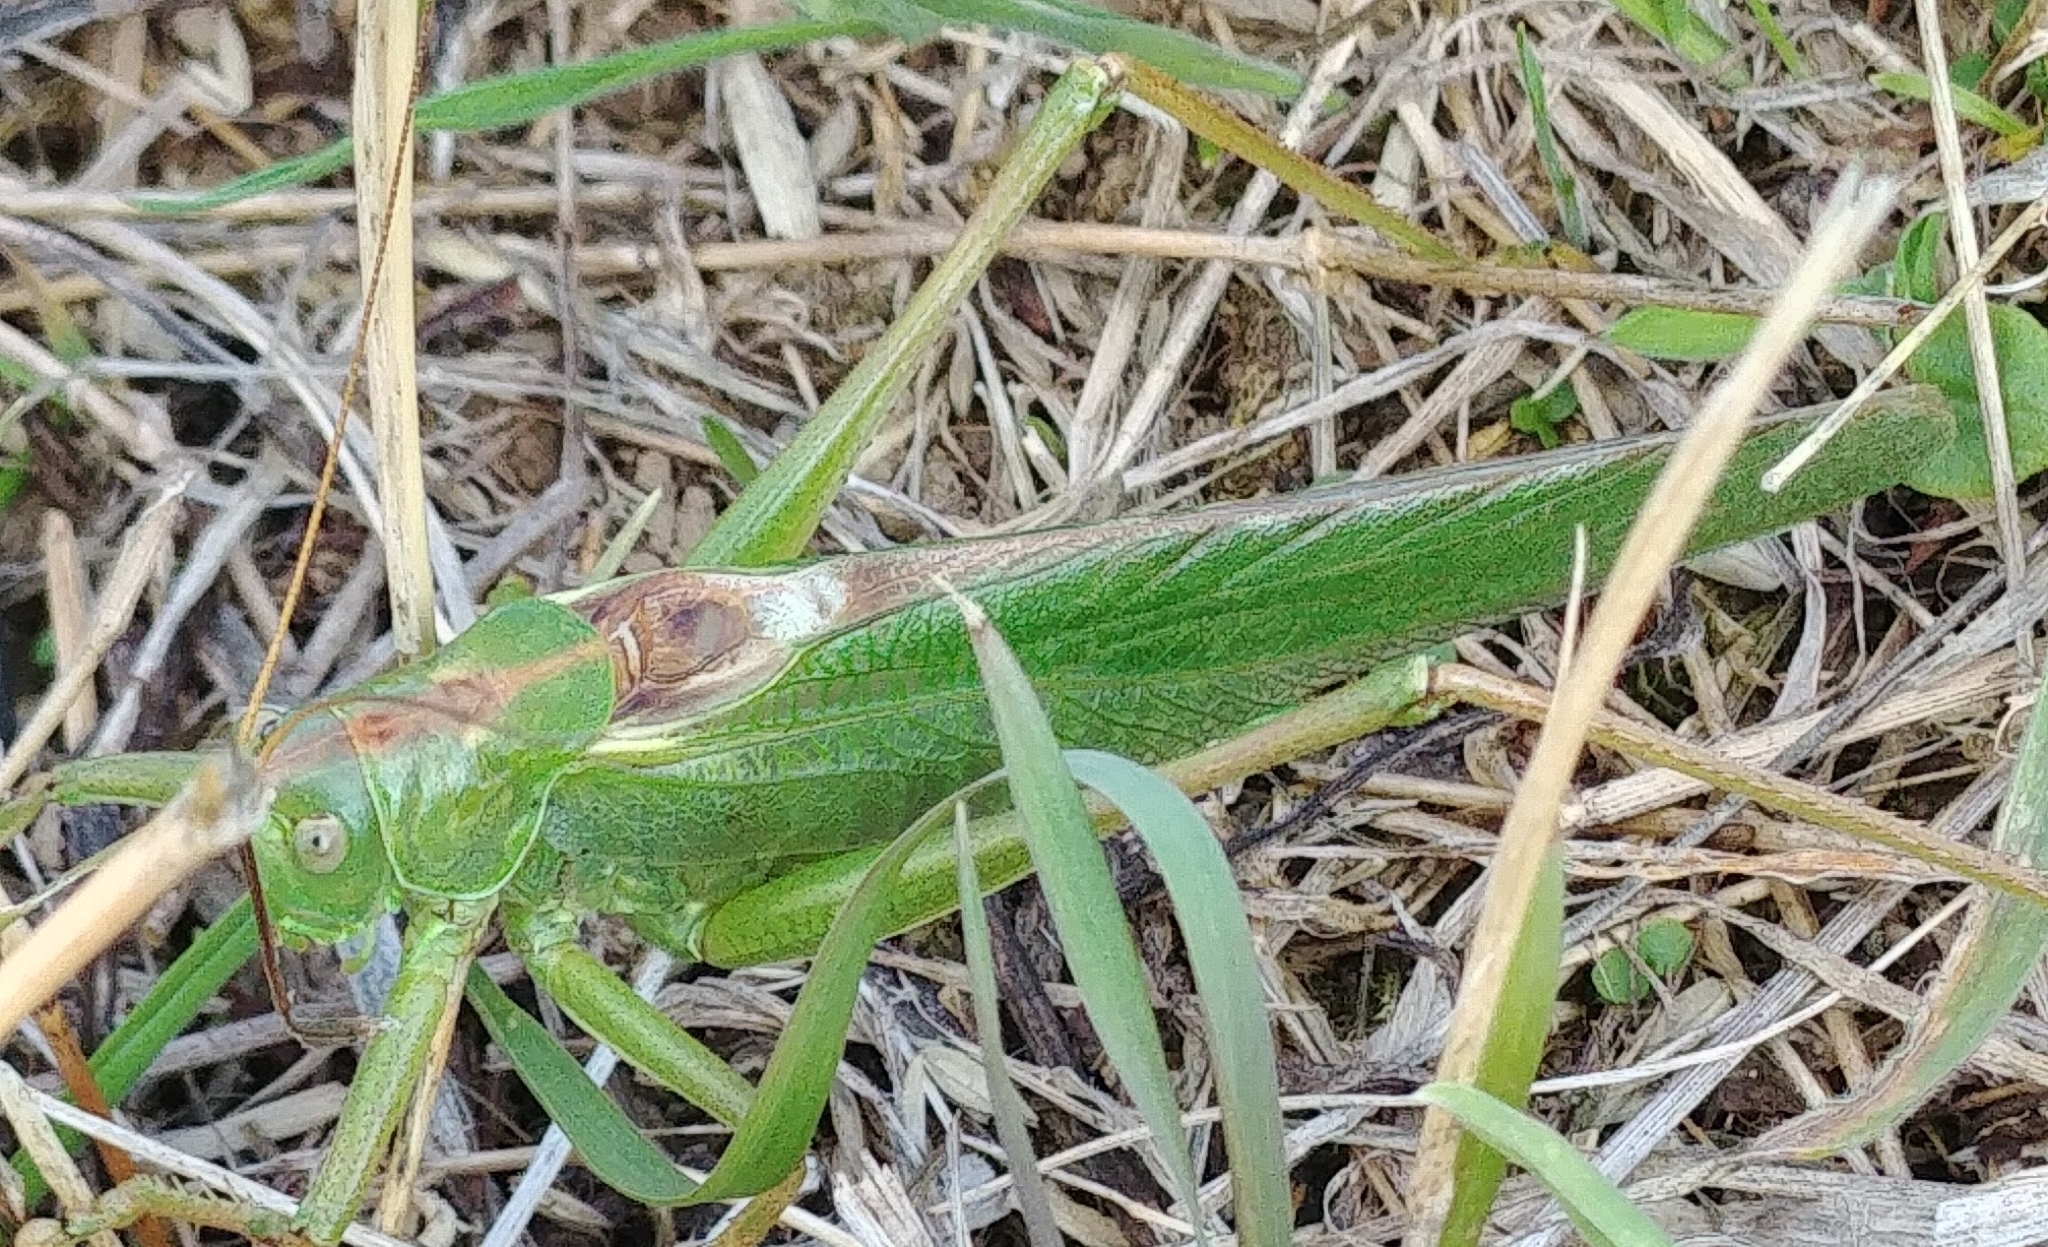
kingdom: Animalia
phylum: Arthropoda
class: Insecta
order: Orthoptera
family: Tettigoniidae
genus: Tettigonia
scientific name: Tettigonia viridissima
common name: Great green bush-cricket
